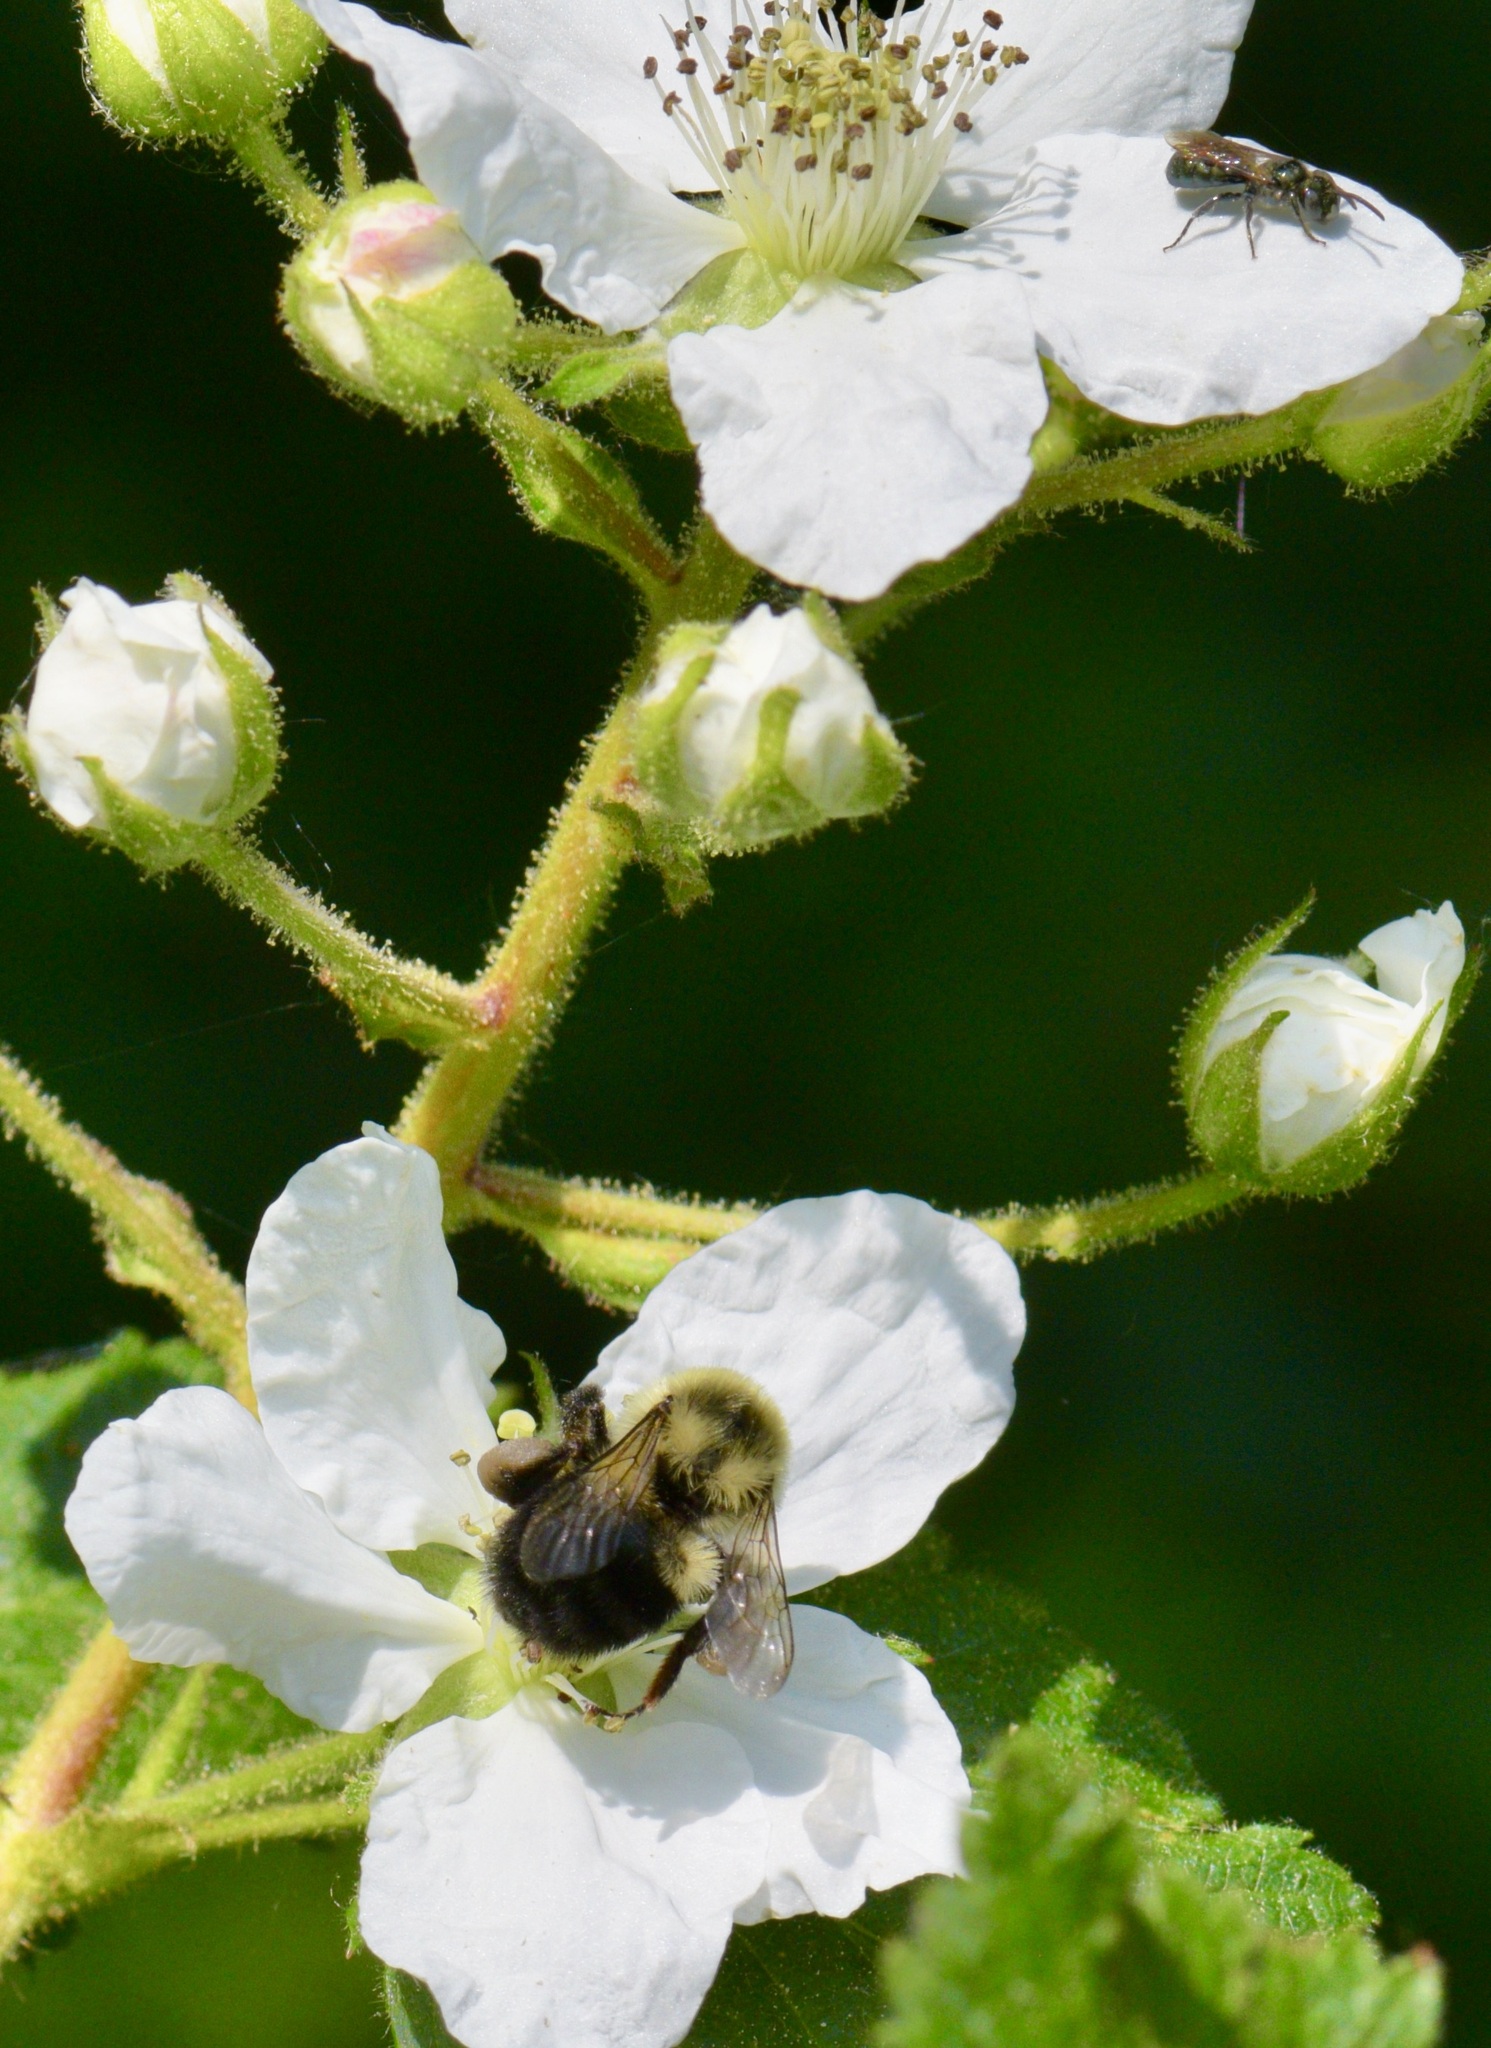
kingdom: Animalia
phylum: Arthropoda
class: Insecta
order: Hymenoptera
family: Apidae
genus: Bombus
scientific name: Bombus impatiens
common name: Common eastern bumble bee
